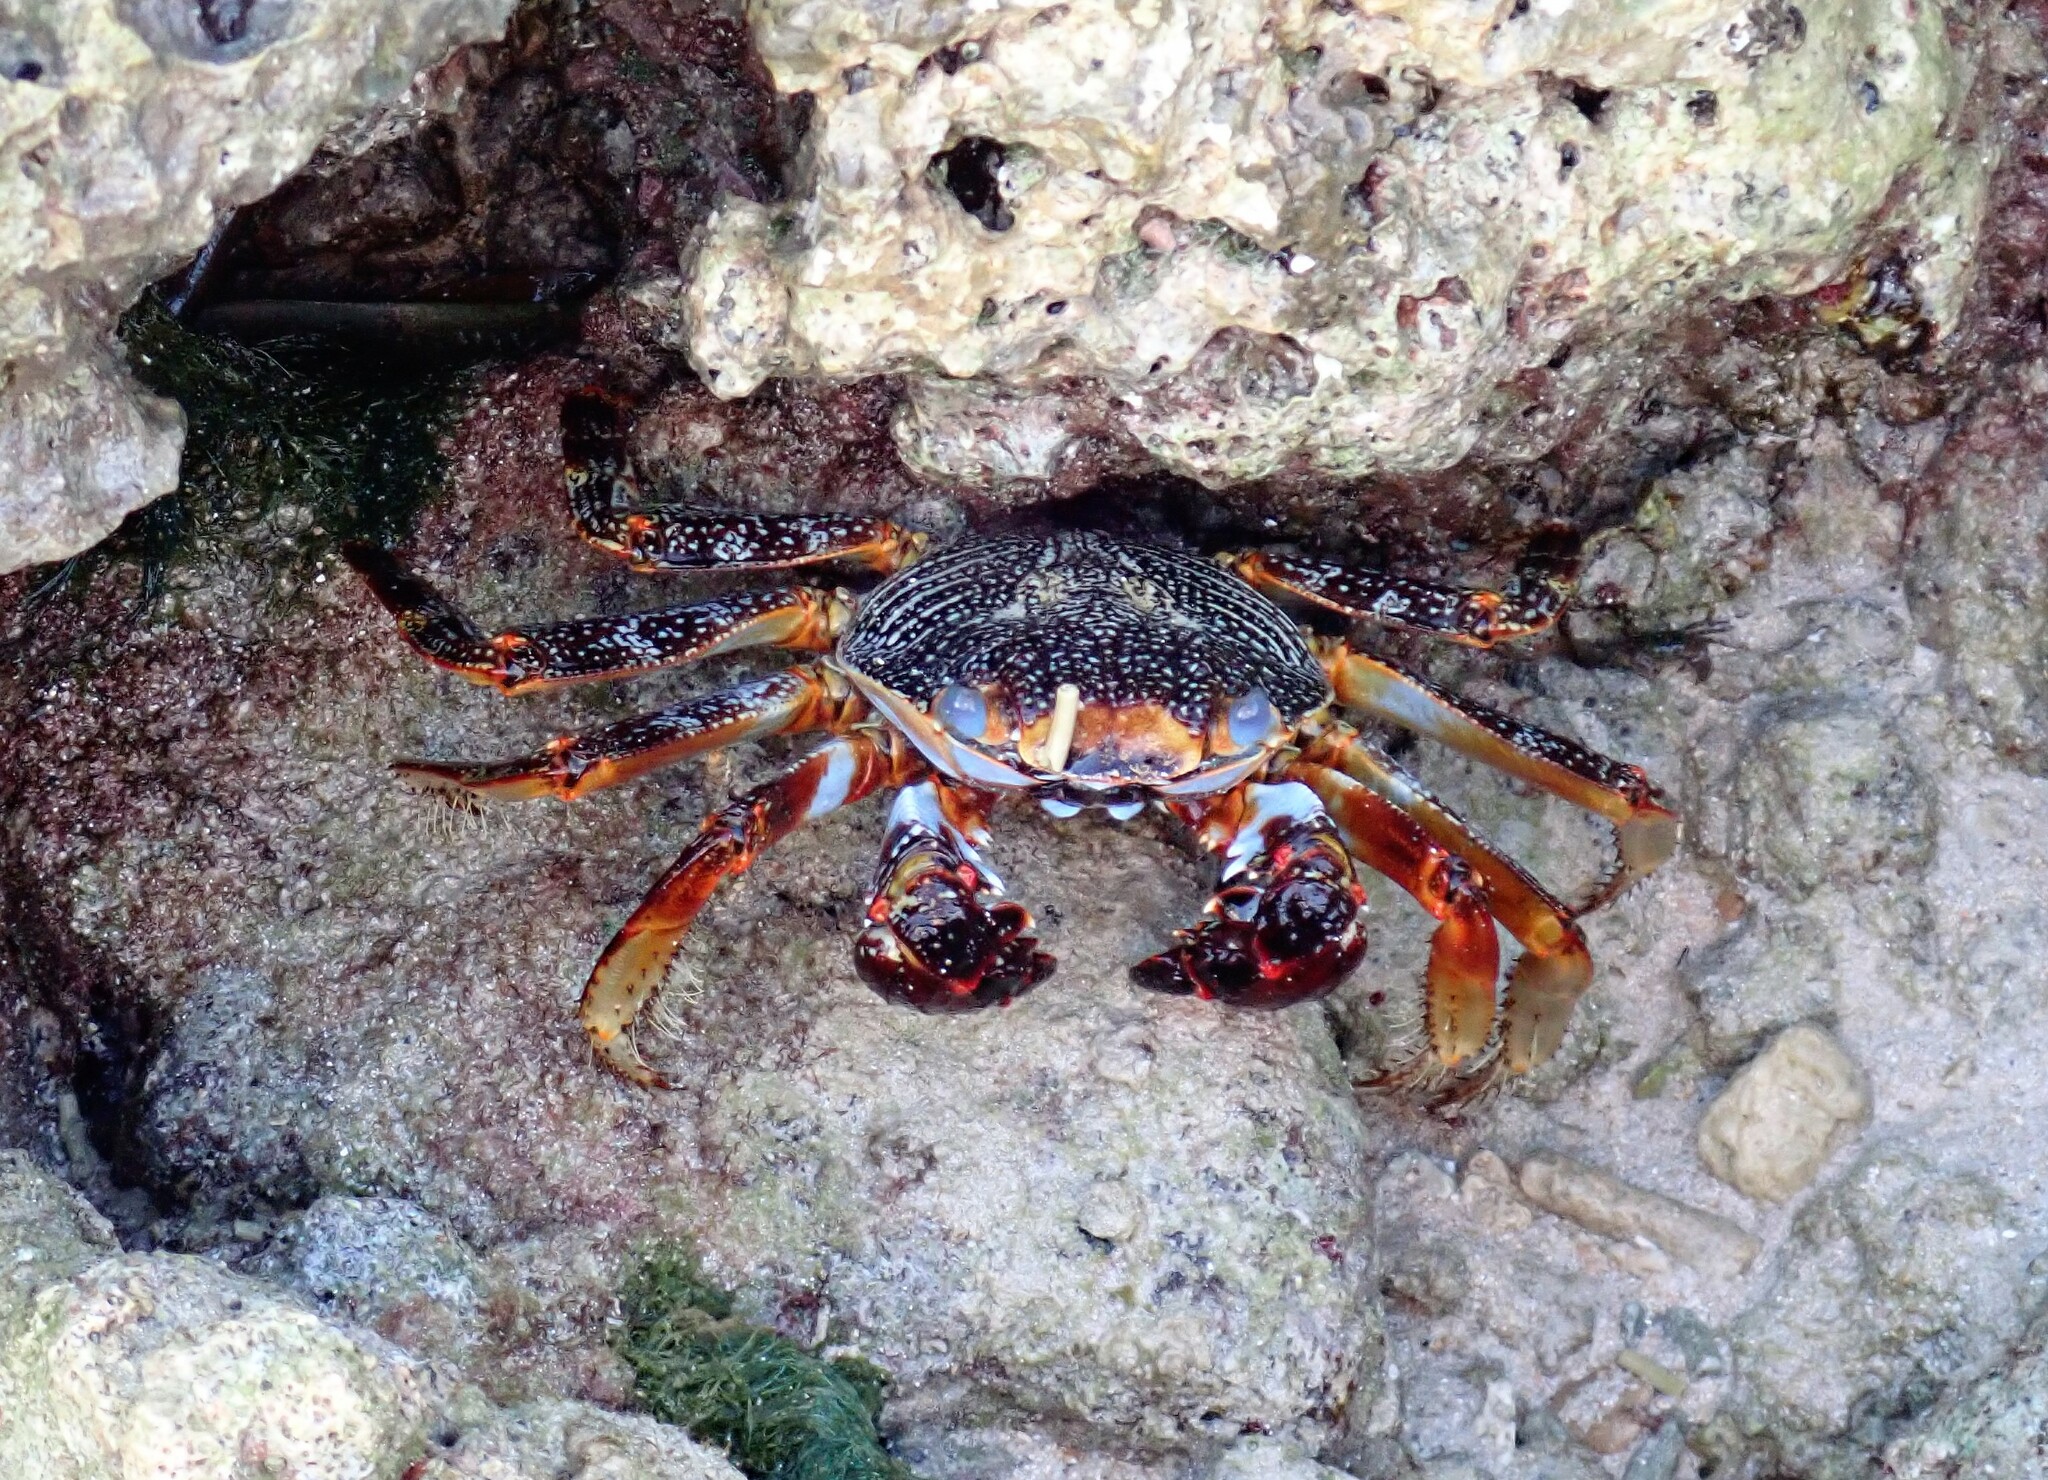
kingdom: Animalia
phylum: Arthropoda
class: Malacostraca
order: Decapoda
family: Grapsidae
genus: Grapsus
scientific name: Grapsus grapsus
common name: Sally lightfoot
